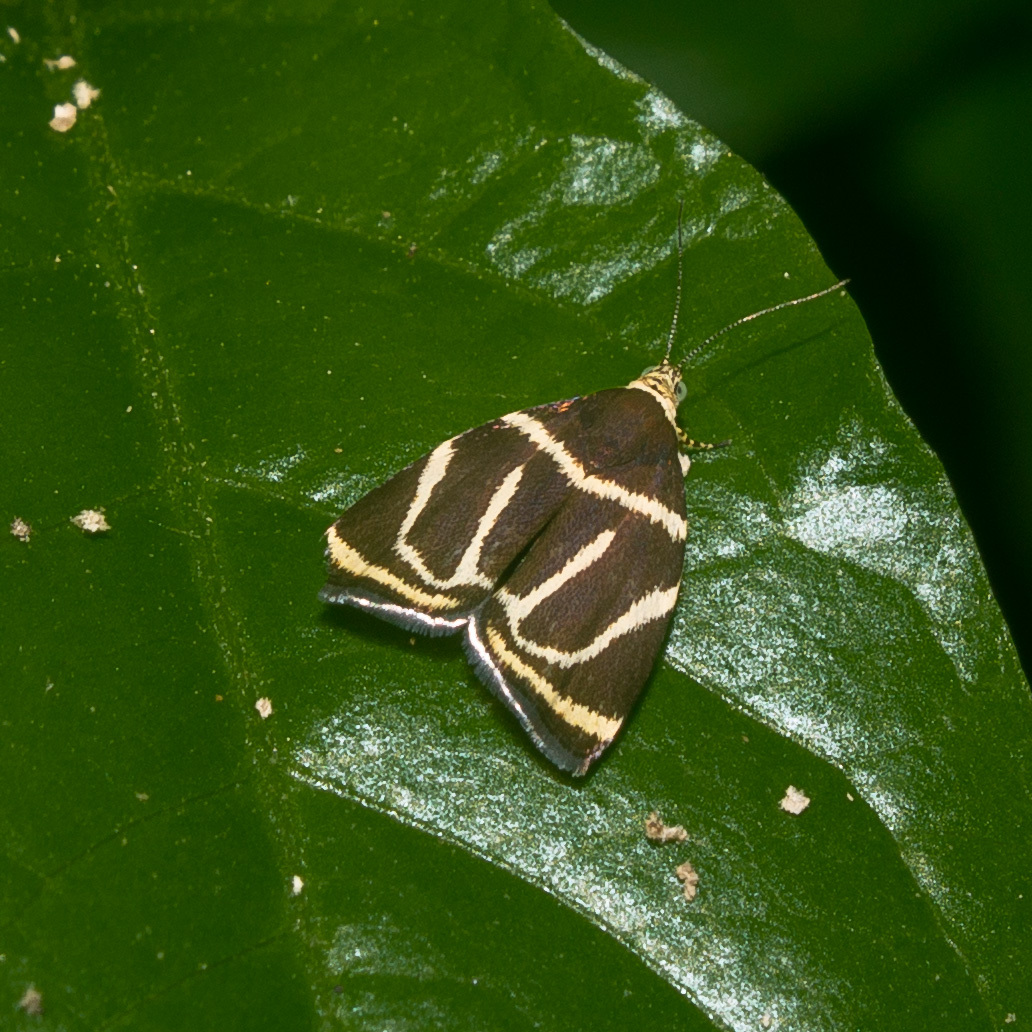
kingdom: Animalia
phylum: Arthropoda
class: Insecta
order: Lepidoptera
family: Choreutidae
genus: Hemerophila
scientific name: Hemerophila
